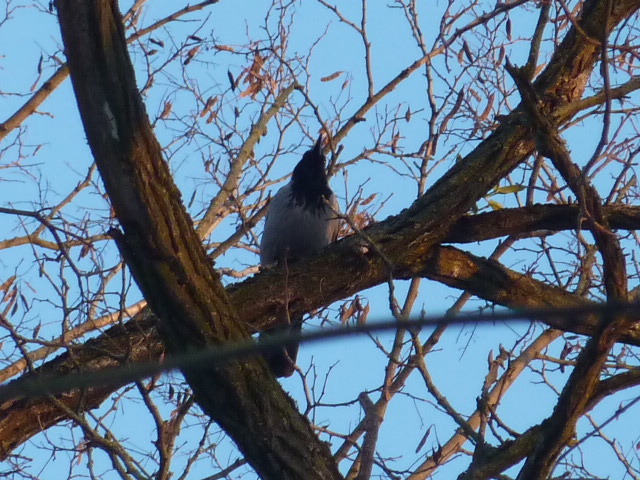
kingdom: Animalia
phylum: Chordata
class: Aves
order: Passeriformes
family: Corvidae
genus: Corvus
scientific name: Corvus cornix
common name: Hooded crow
